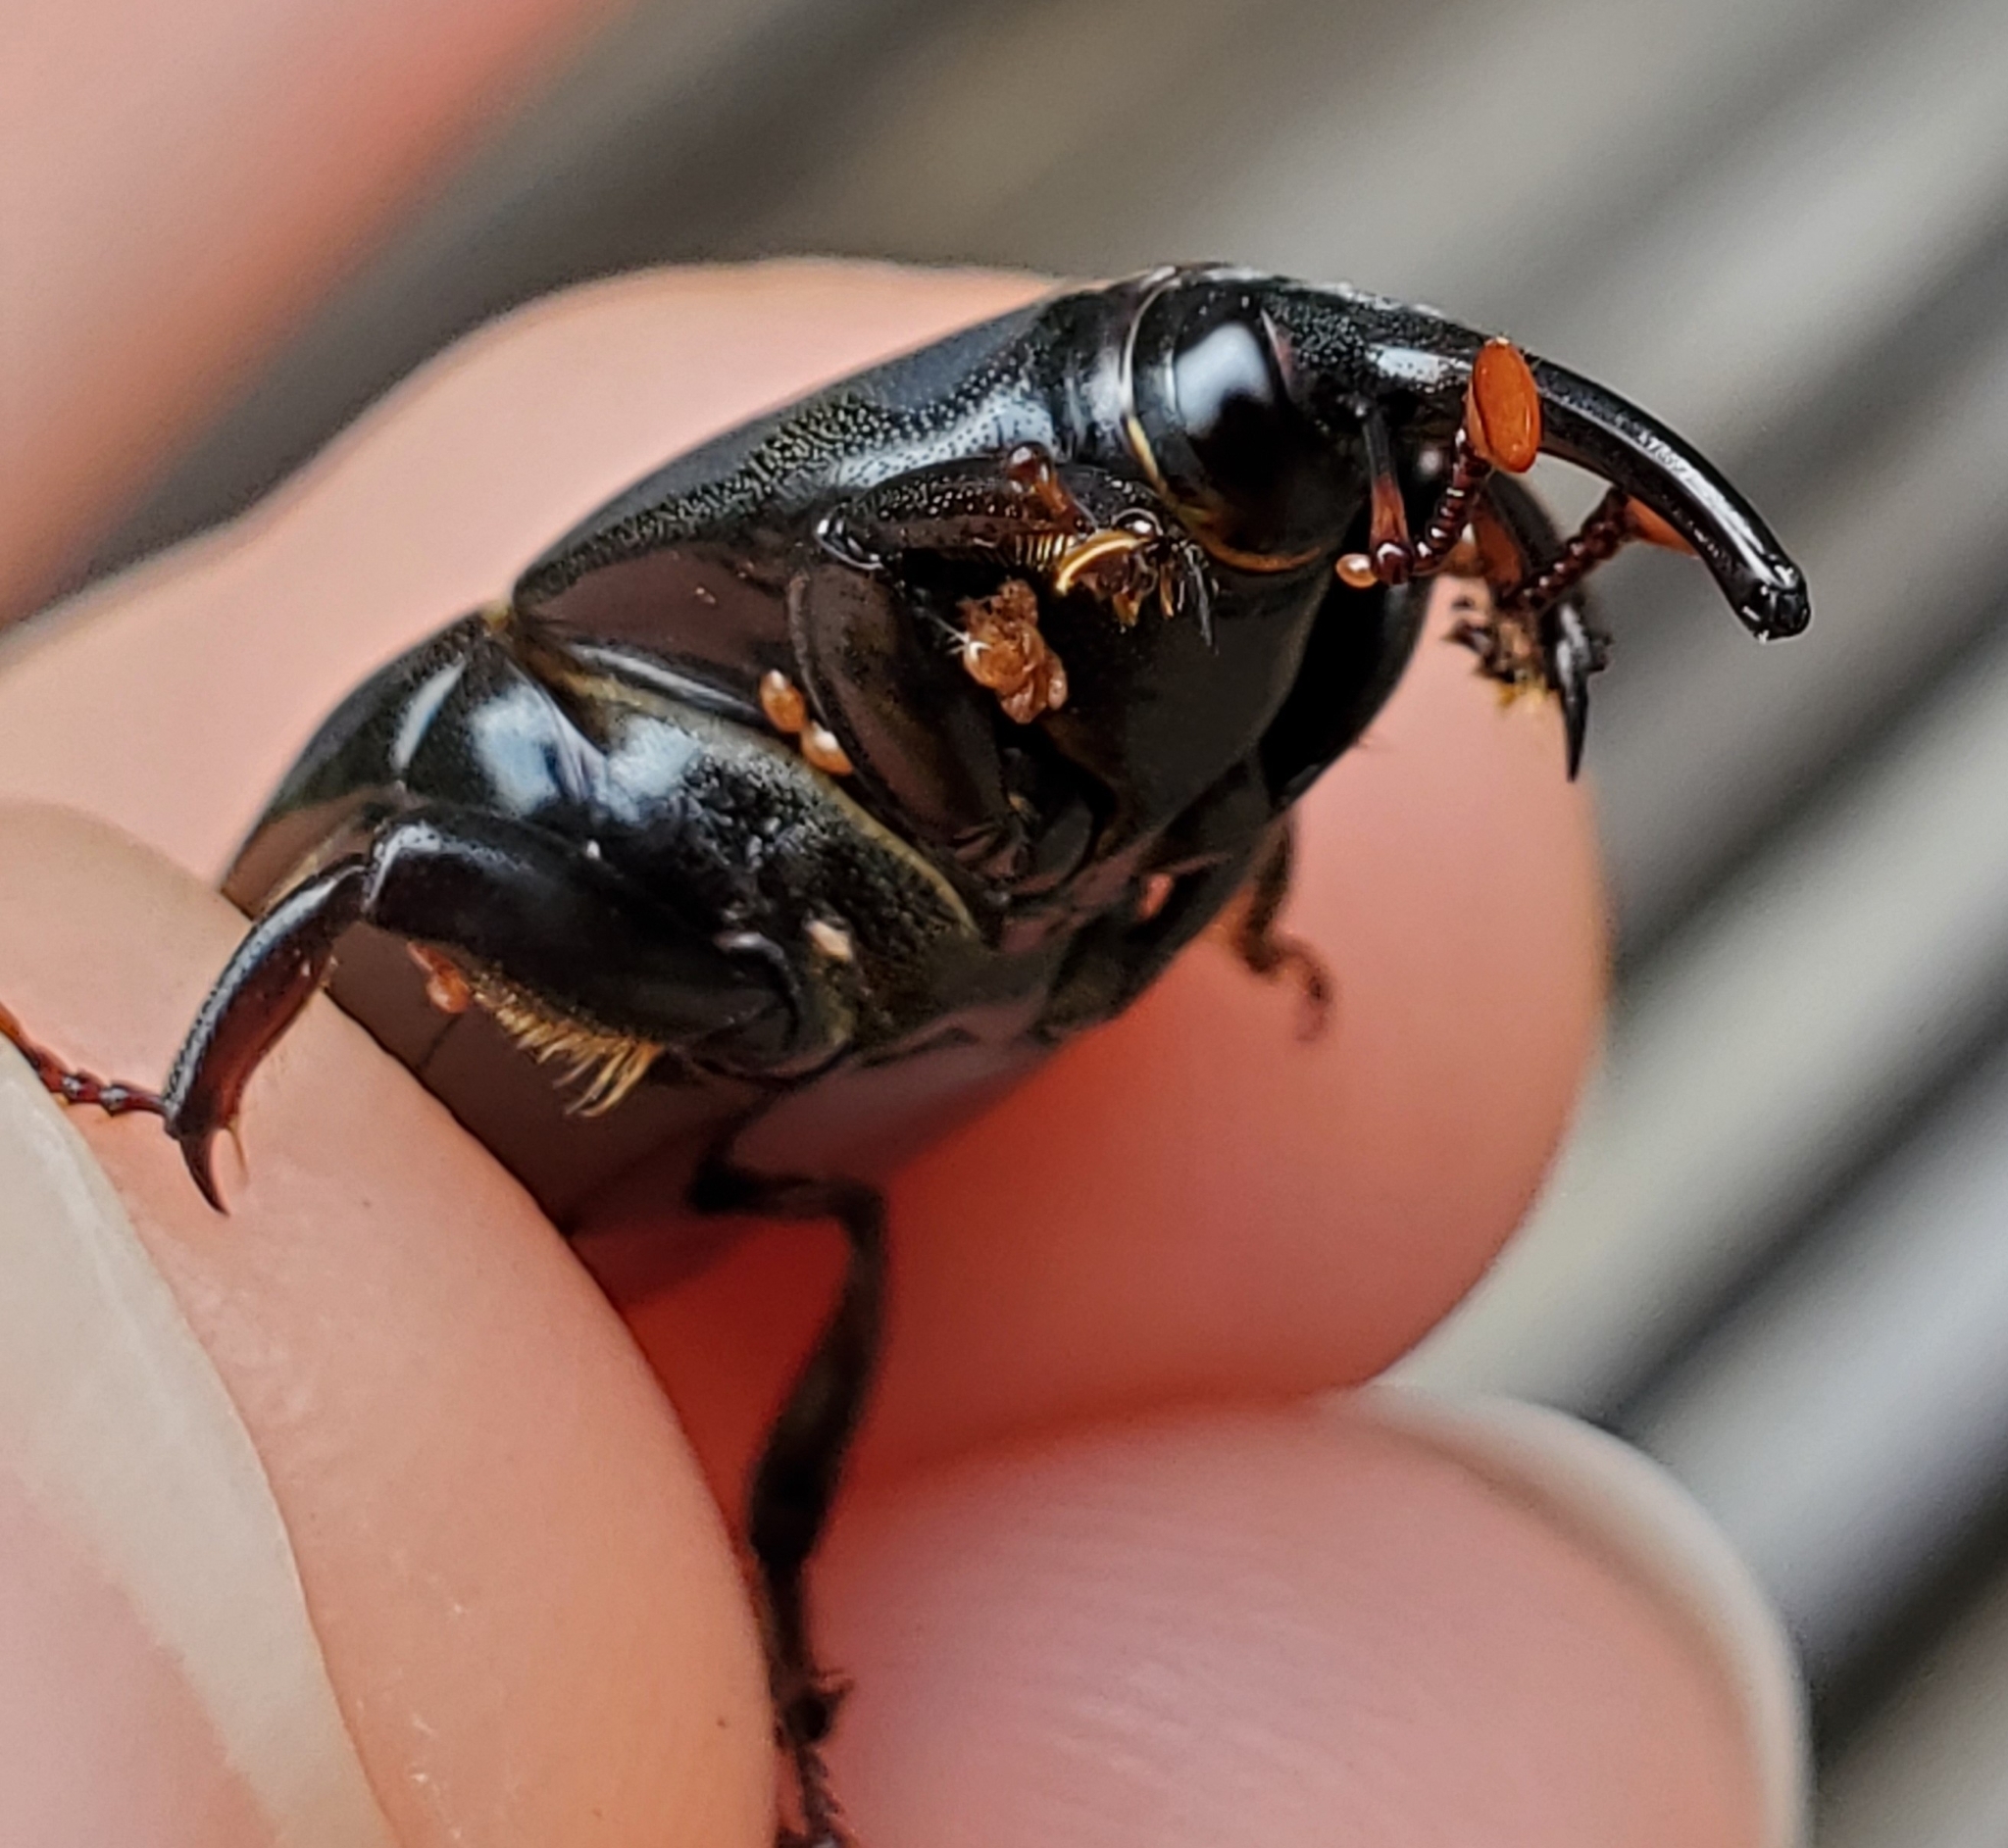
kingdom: Animalia
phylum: Arthropoda
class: Insecta
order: Coleoptera
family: Dryophthoridae
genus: Rhynchophorus
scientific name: Rhynchophorus cruentatus
